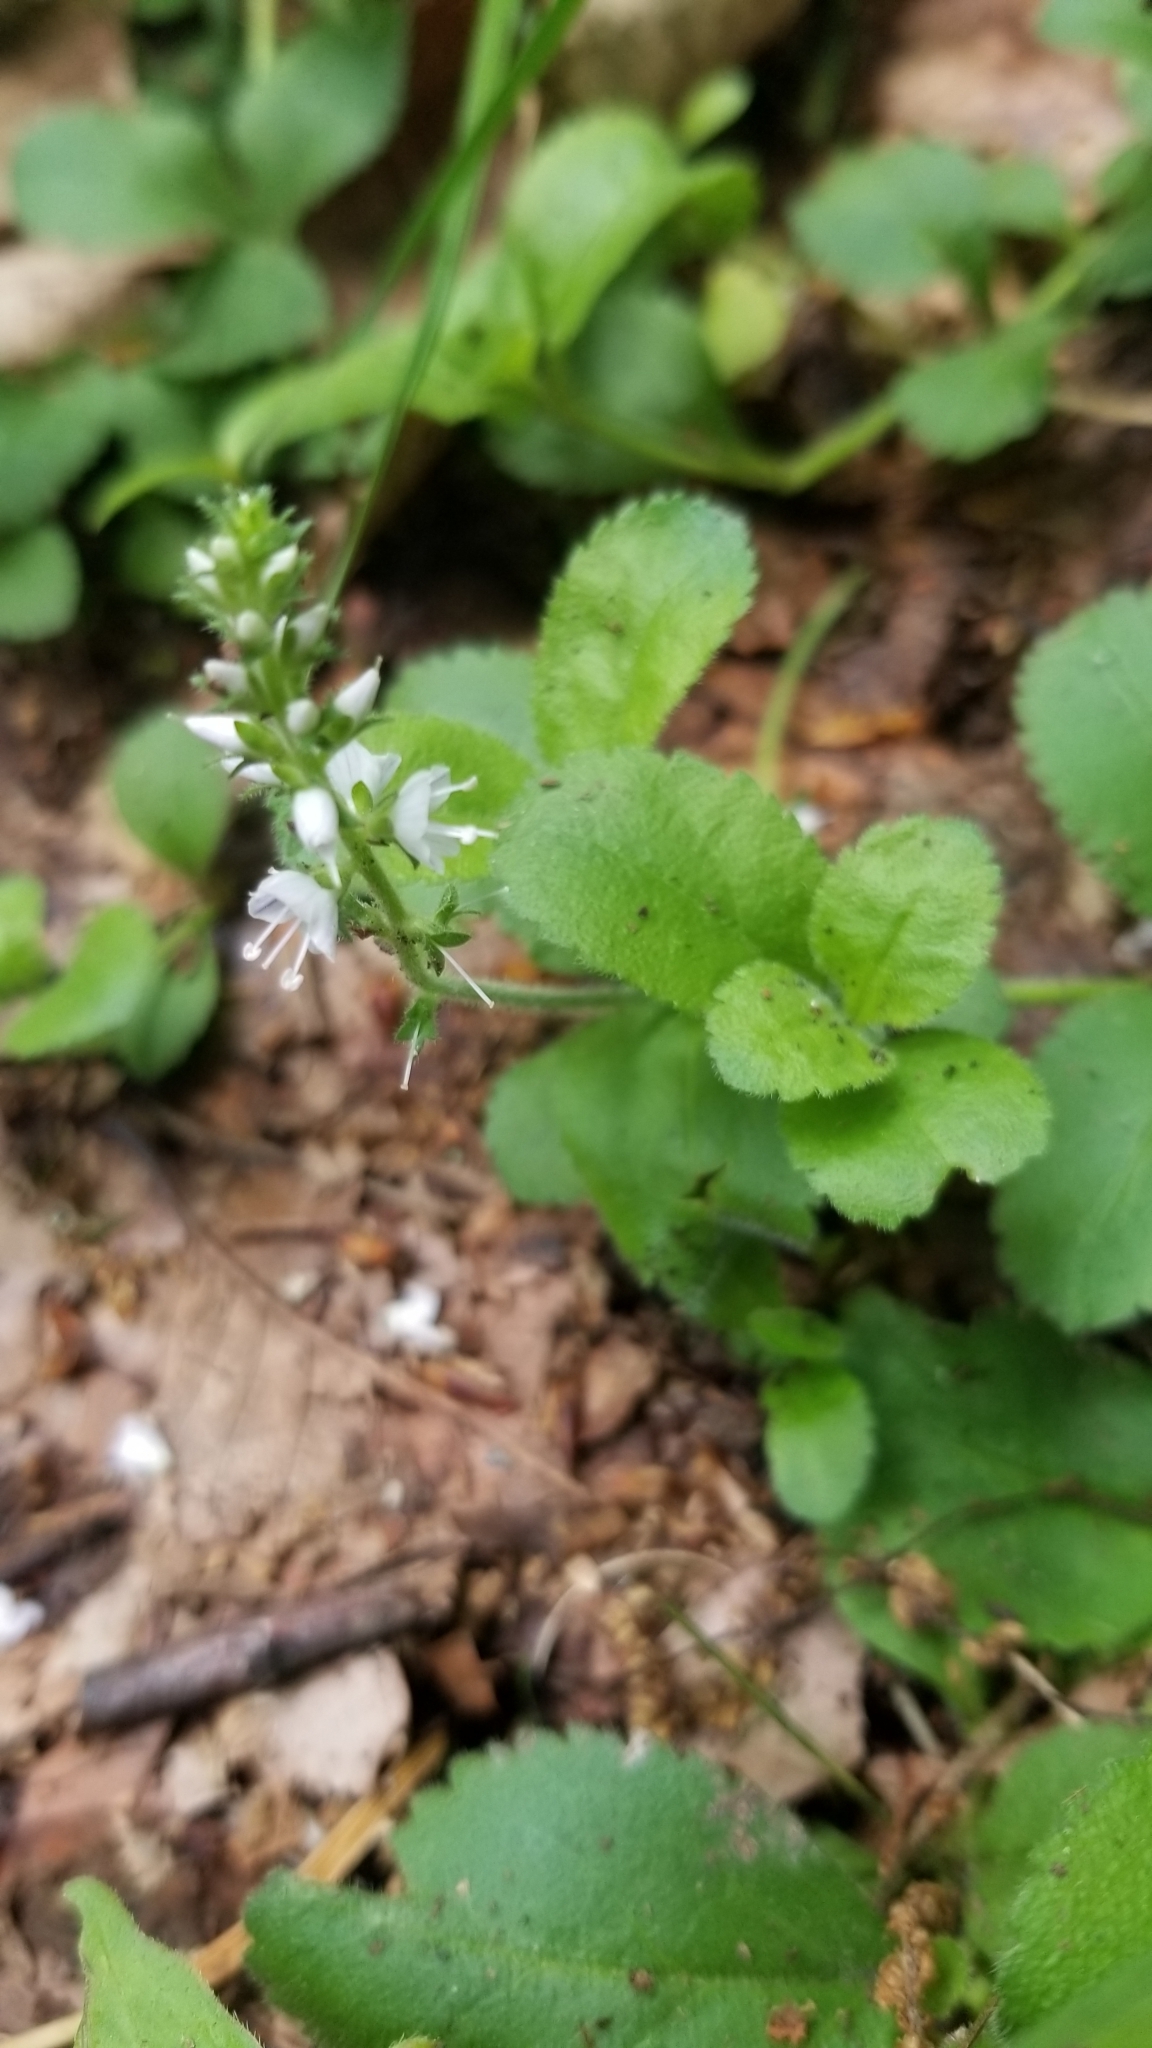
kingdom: Plantae
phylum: Tracheophyta
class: Magnoliopsida
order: Lamiales
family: Plantaginaceae
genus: Veronica
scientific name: Veronica officinalis
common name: Common speedwell
